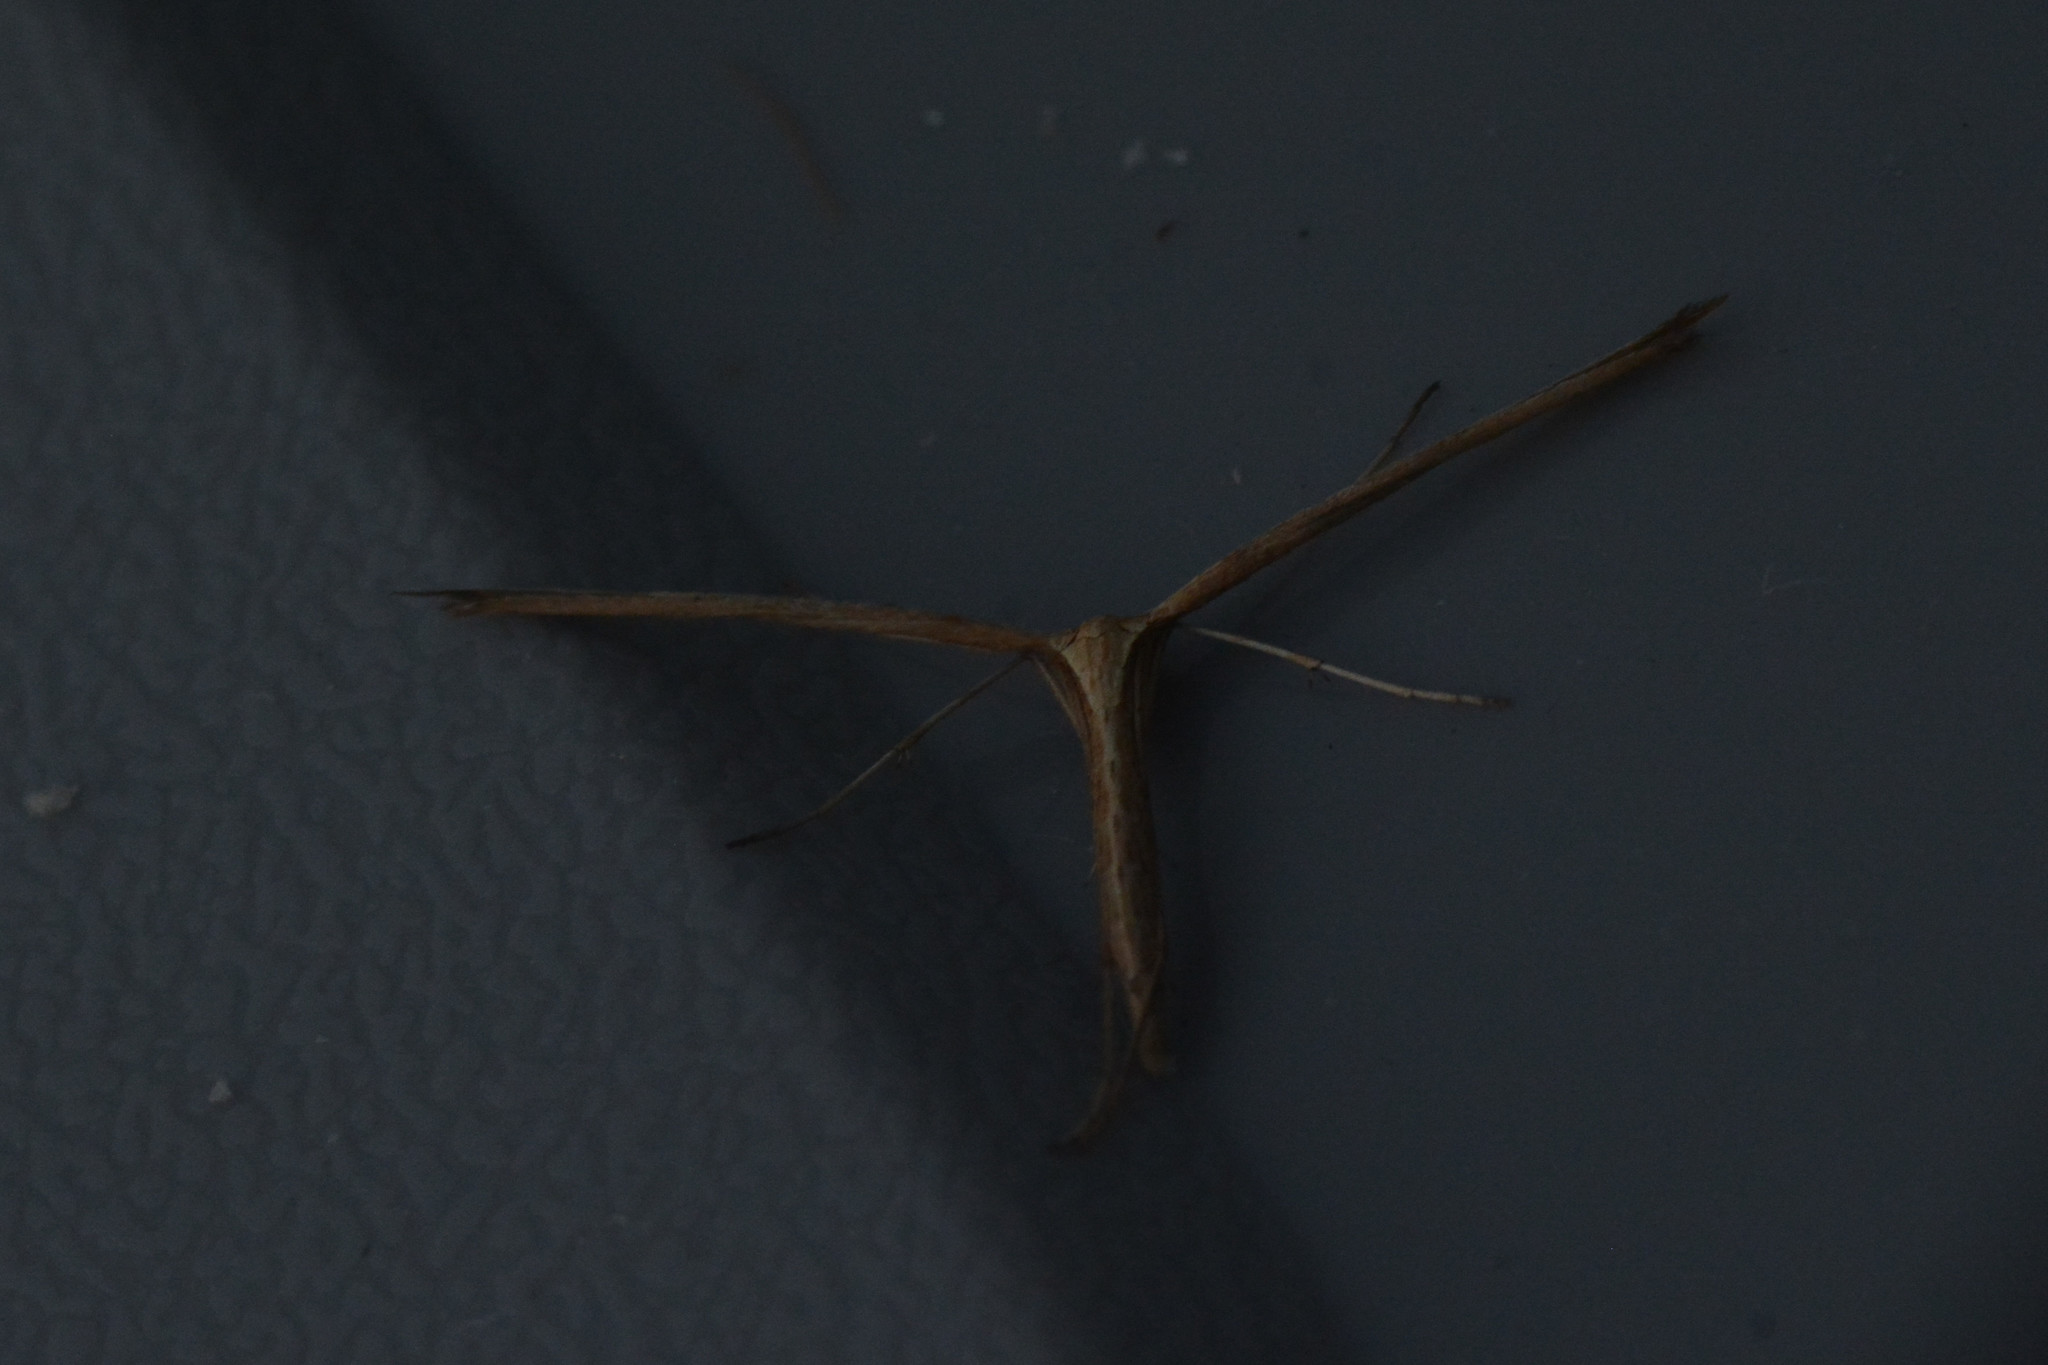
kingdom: Animalia
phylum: Arthropoda
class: Insecta
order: Lepidoptera
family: Pterophoridae
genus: Emmelina
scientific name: Emmelina monodactyla
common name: Common plume
